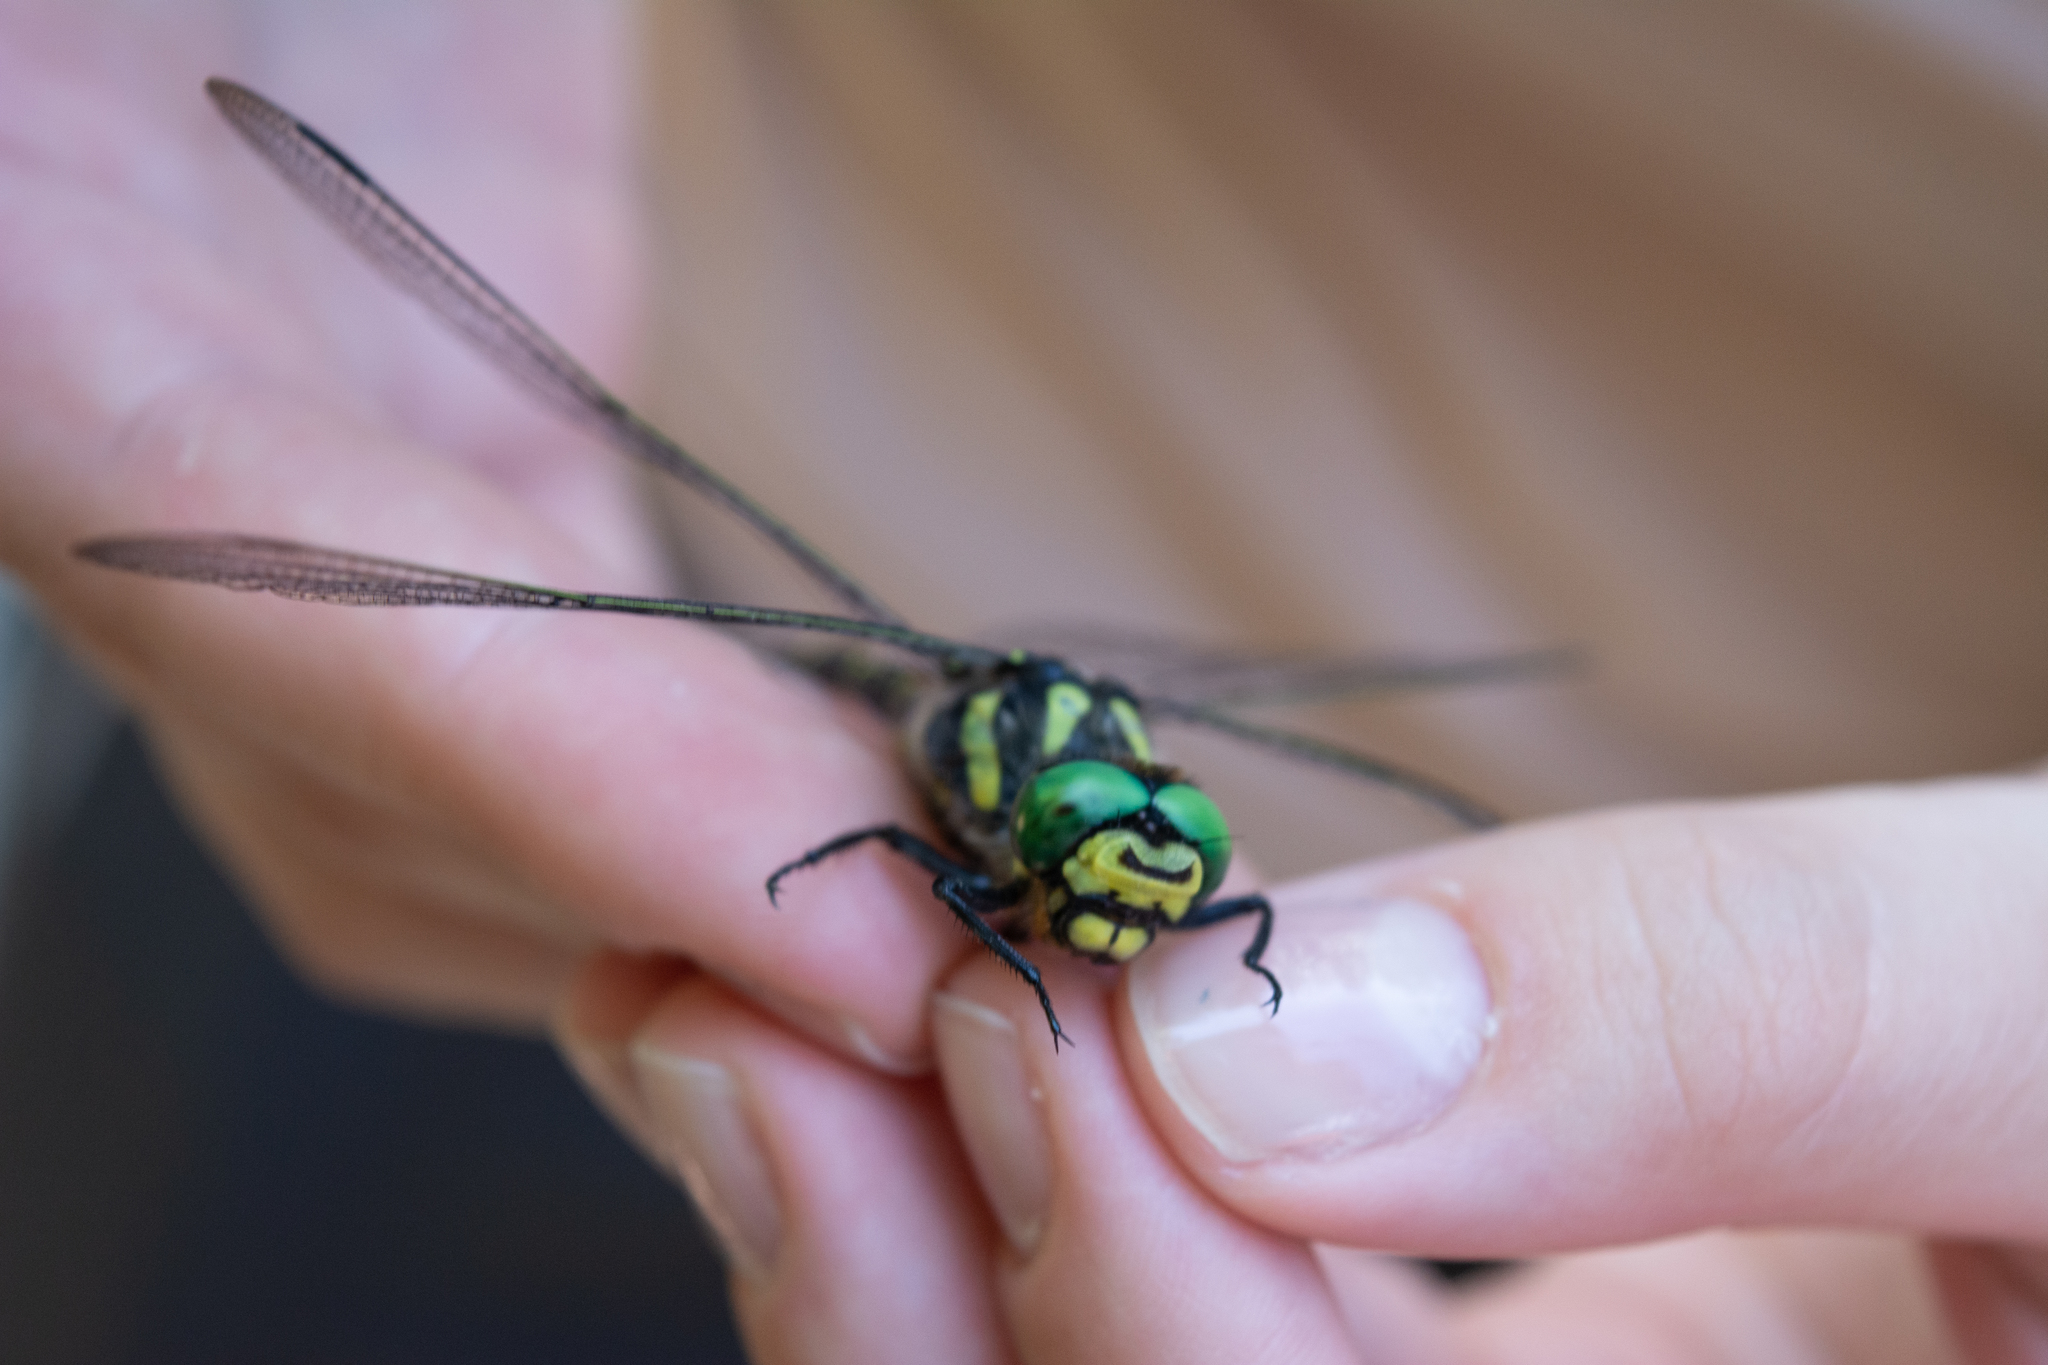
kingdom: Animalia
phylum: Arthropoda
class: Insecta
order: Odonata
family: Cordulegastridae
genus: Cordulegaster
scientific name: Cordulegaster bidentata
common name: Sombre goldenring
